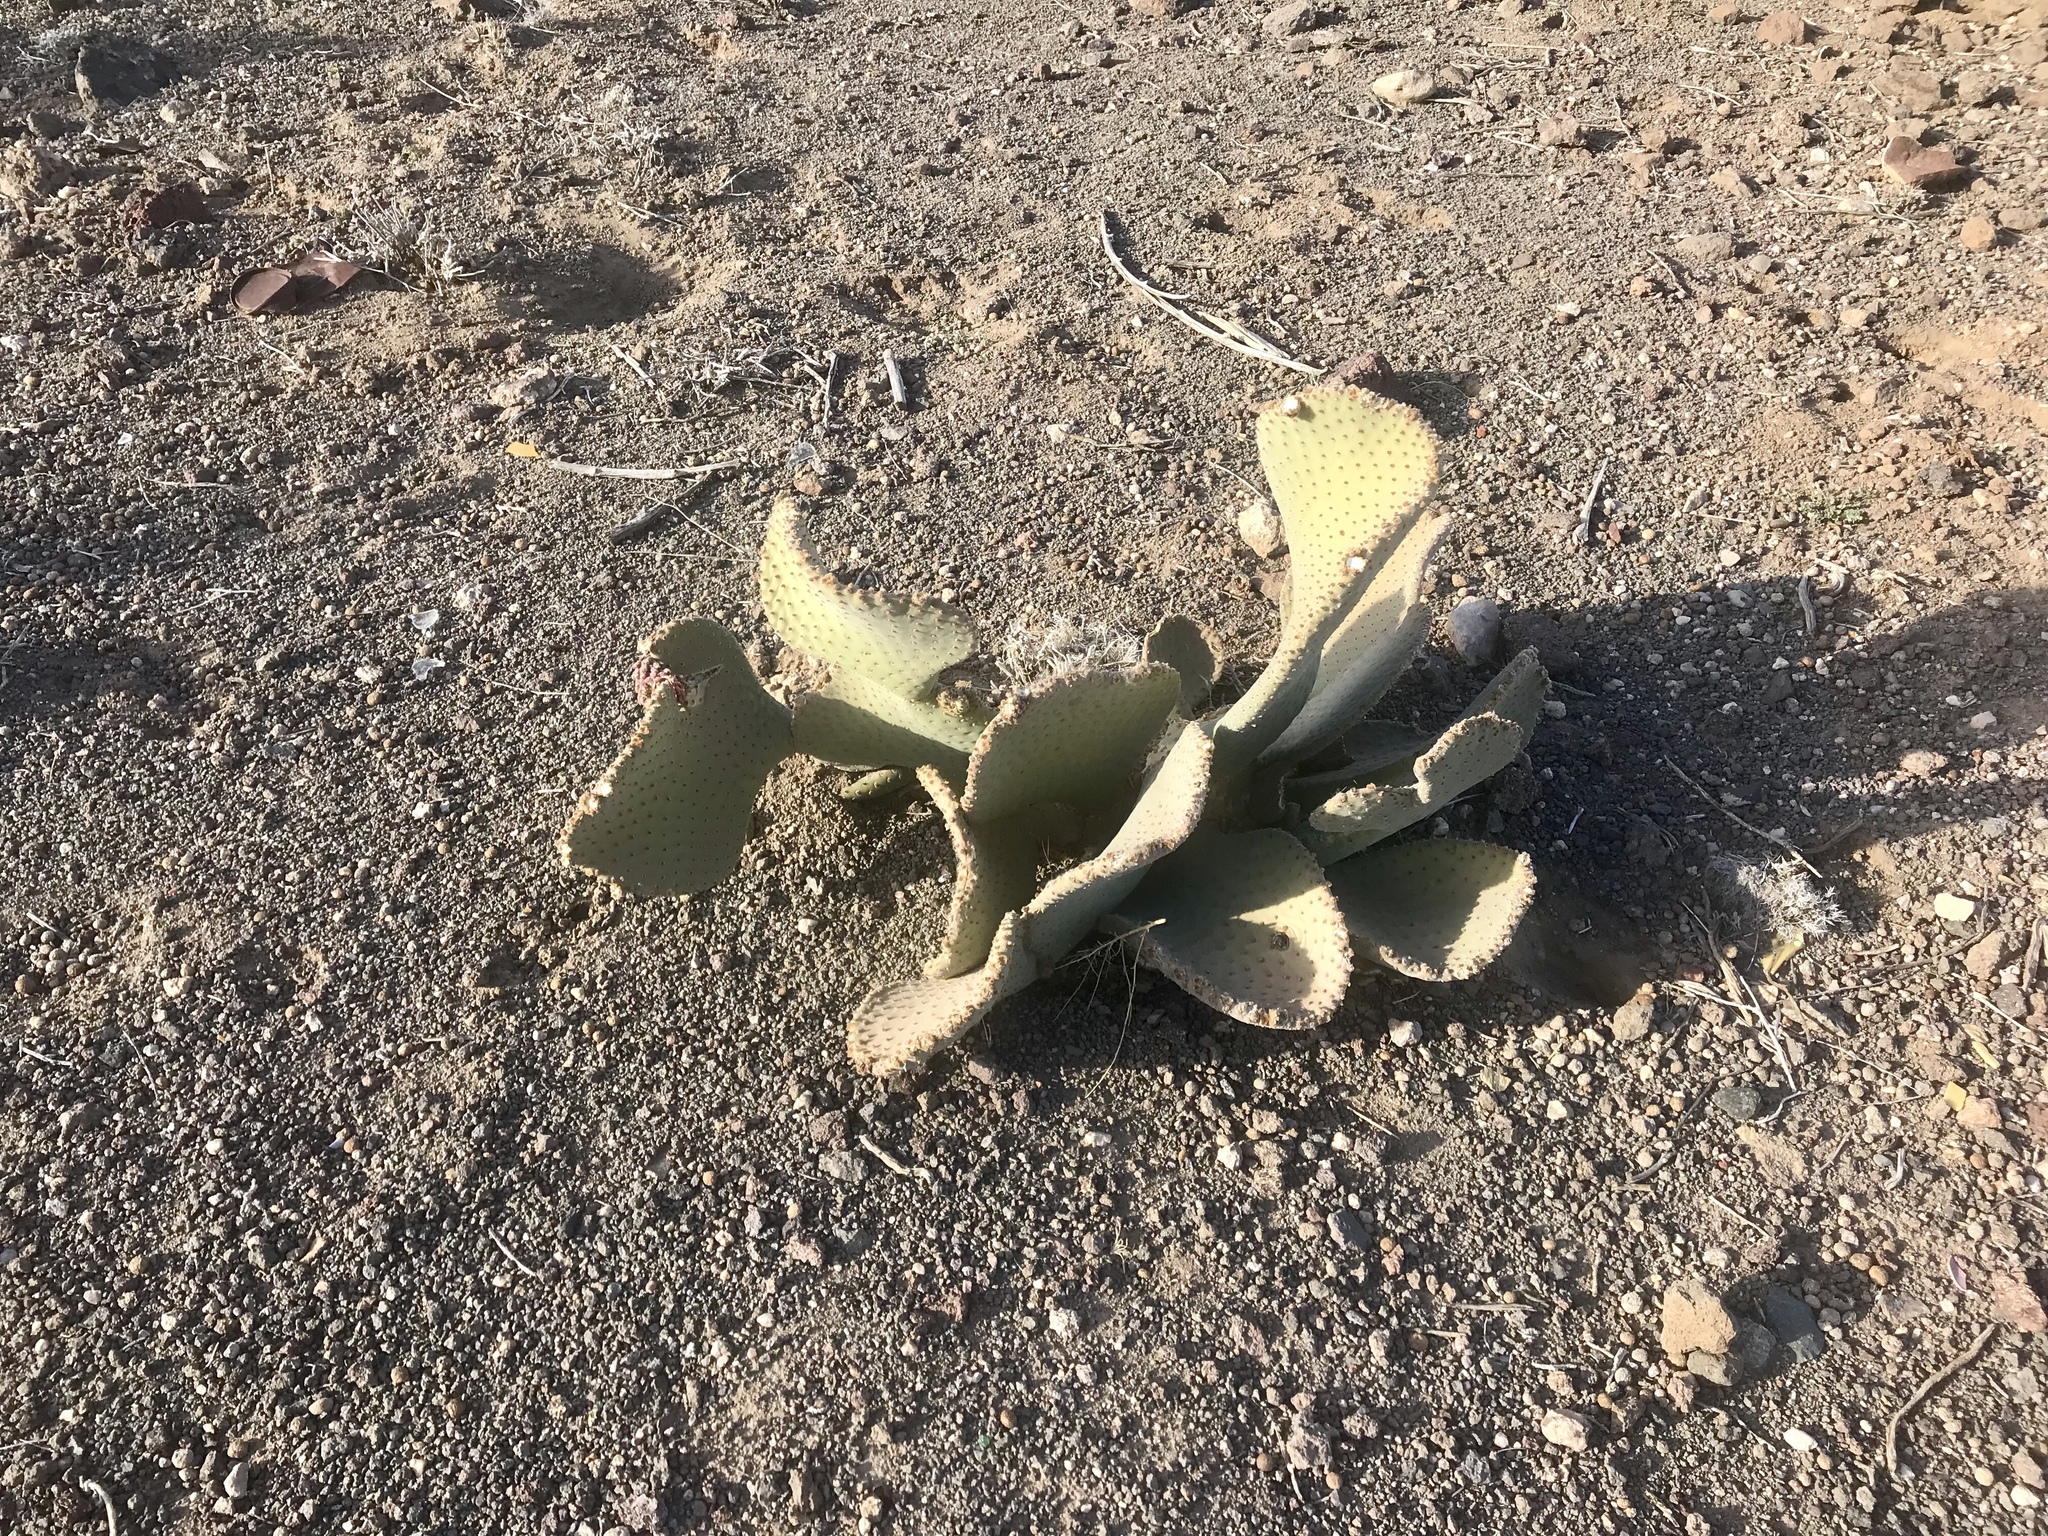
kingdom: Plantae
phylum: Tracheophyta
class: Magnoliopsida
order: Caryophyllales
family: Cactaceae
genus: Opuntia
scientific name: Opuntia basilaris
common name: Beavertail prickly-pear
